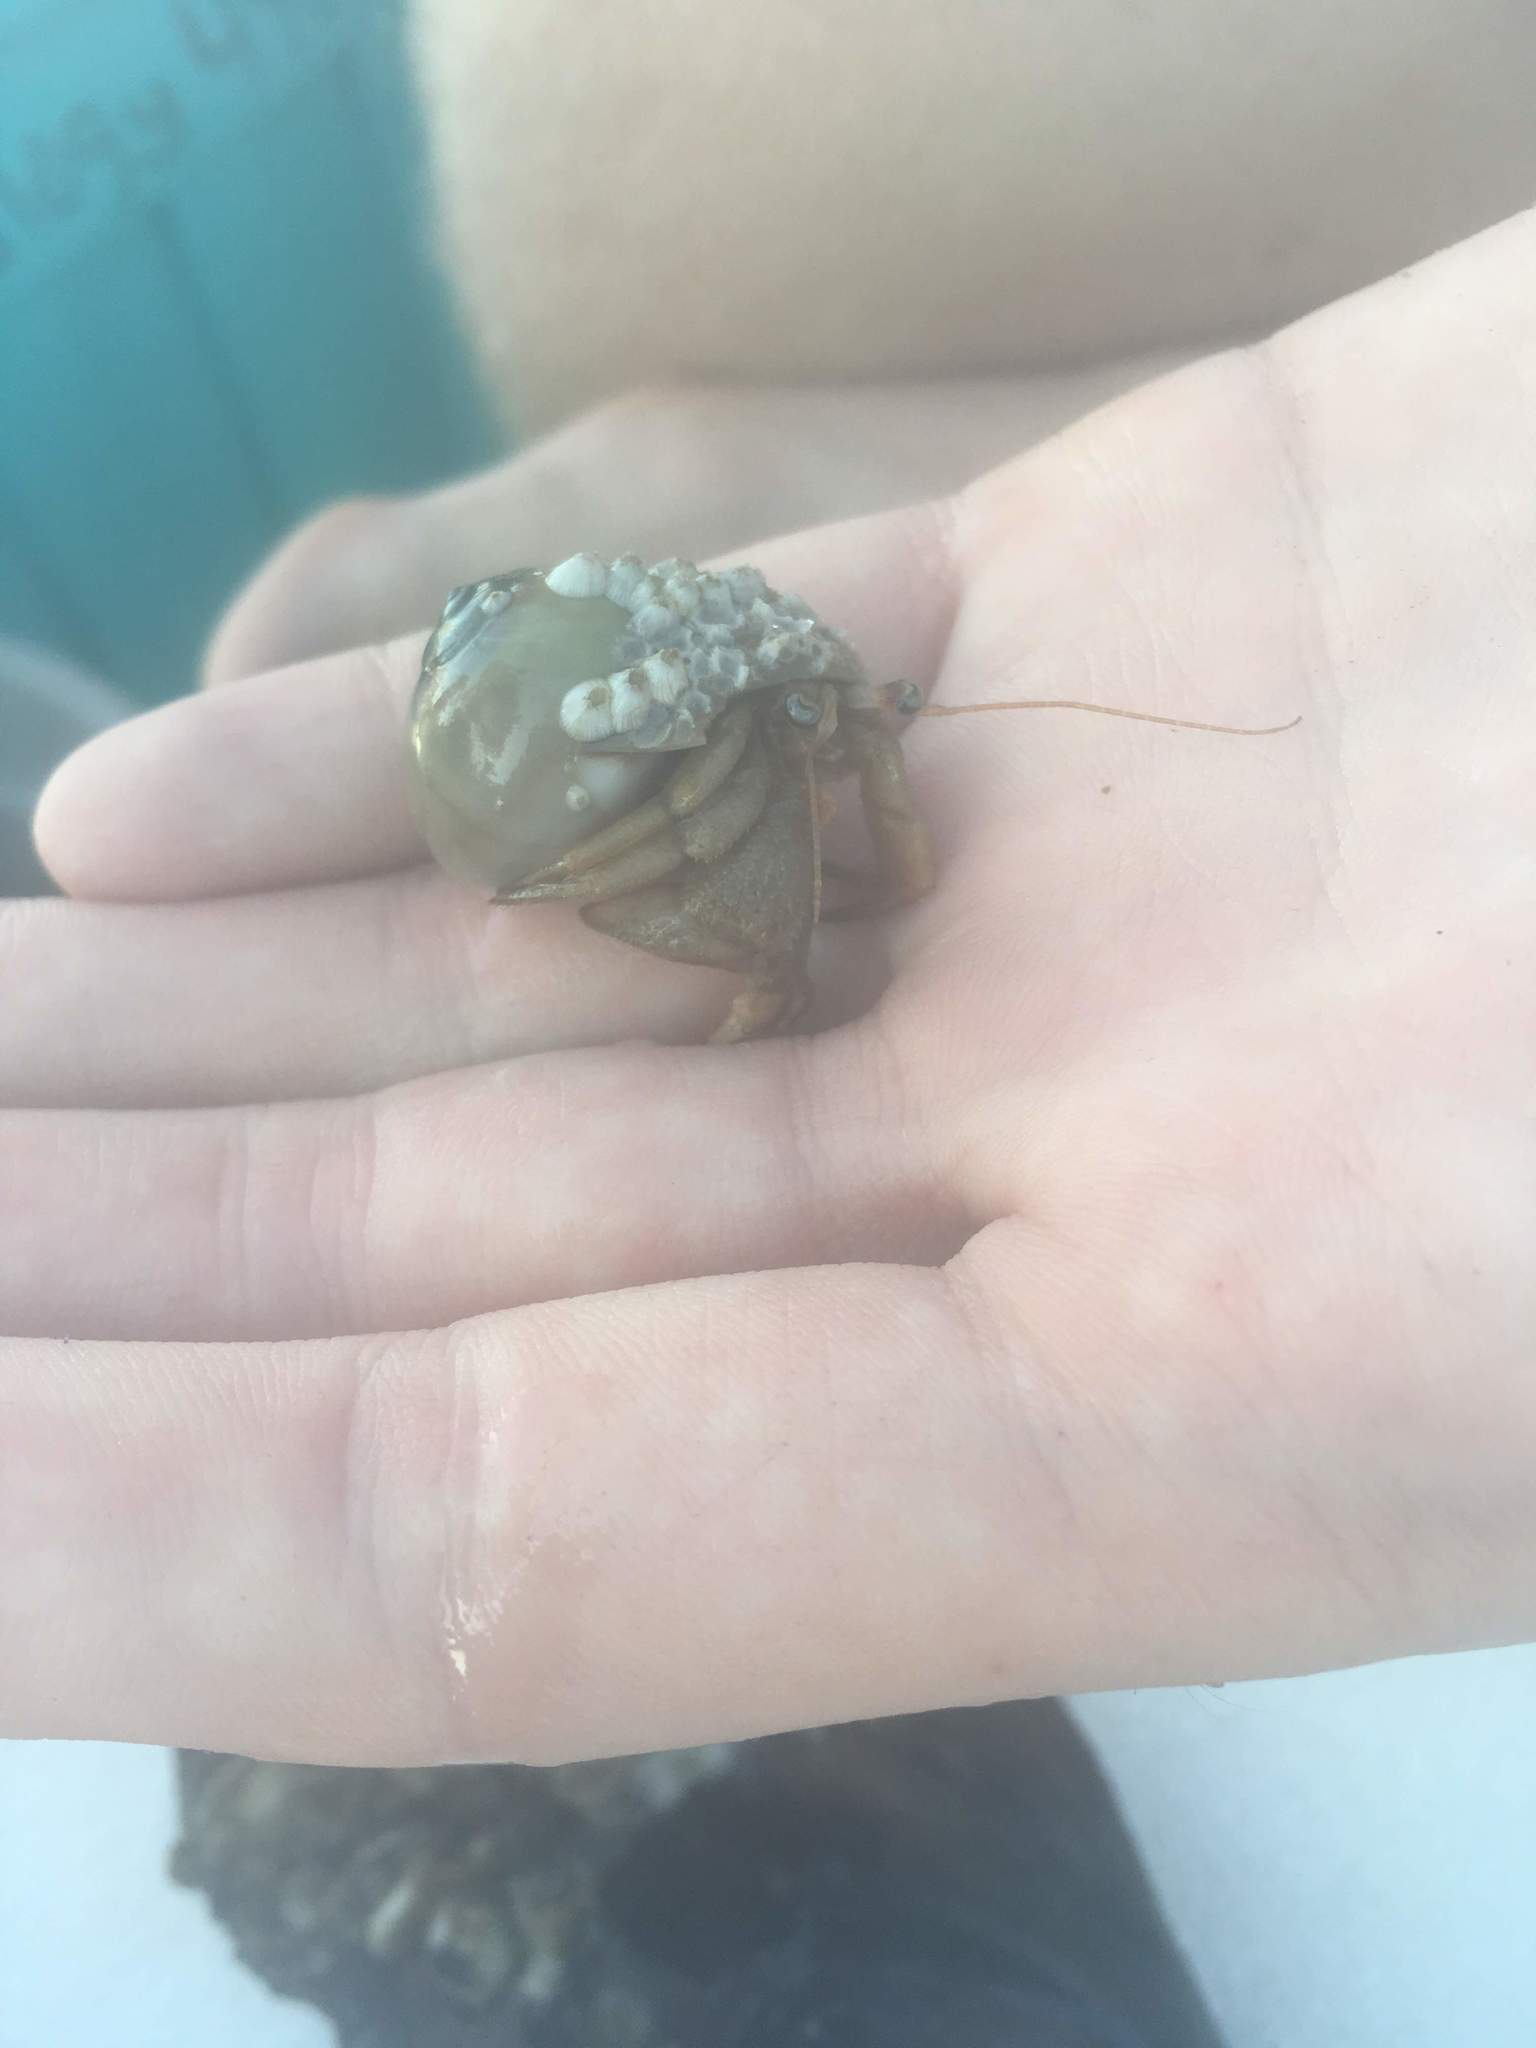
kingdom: Animalia
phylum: Arthropoda
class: Malacostraca
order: Decapoda
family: Paguridae
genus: Pagurus
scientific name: Pagurus pollicaris
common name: Flatclaw hermit
